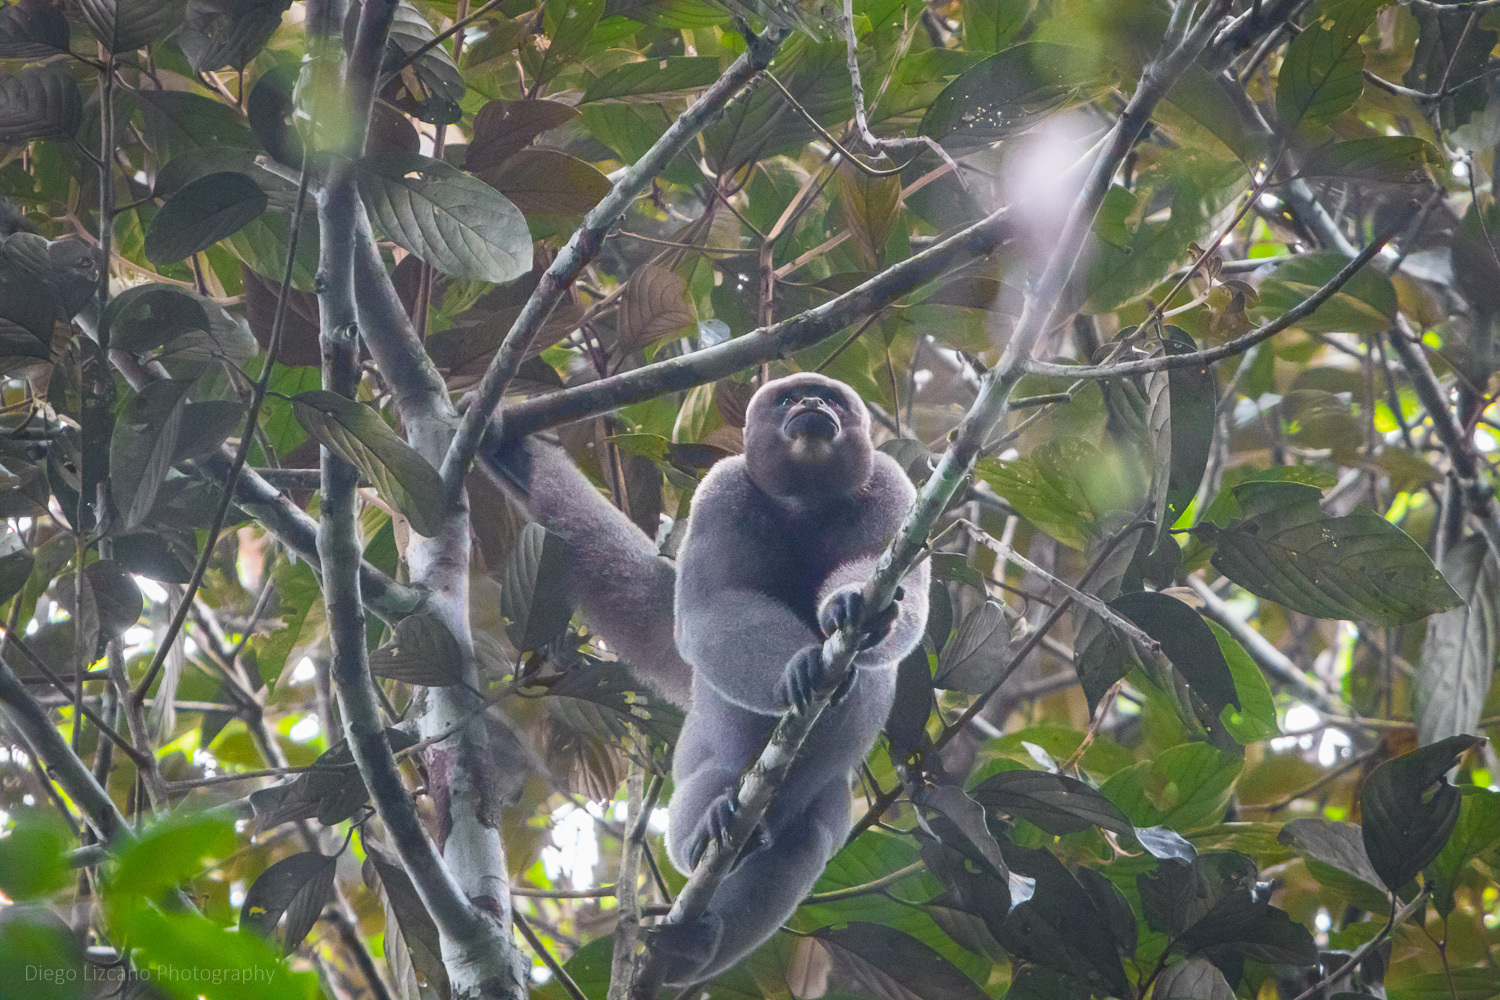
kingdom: Animalia
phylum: Chordata
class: Mammalia
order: Primates
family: Atelidae
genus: Lagothrix
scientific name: Lagothrix lagothricha
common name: Brown woolly monkey
